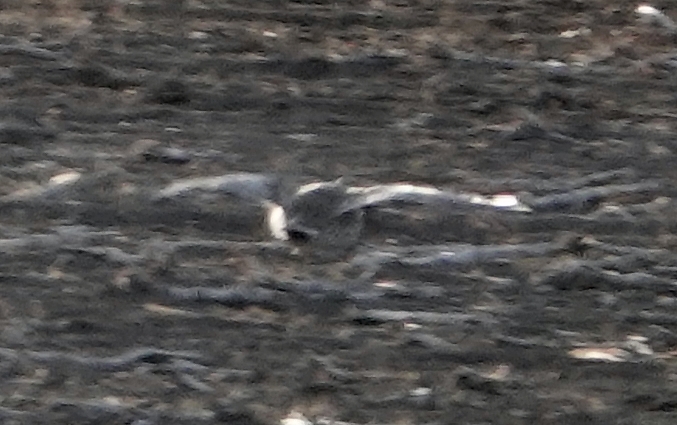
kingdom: Animalia
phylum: Chordata
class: Aves
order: Galliformes
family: Phasianidae
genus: Tympanuchus
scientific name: Tympanuchus phasianellus
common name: Sharp-tailed grouse
